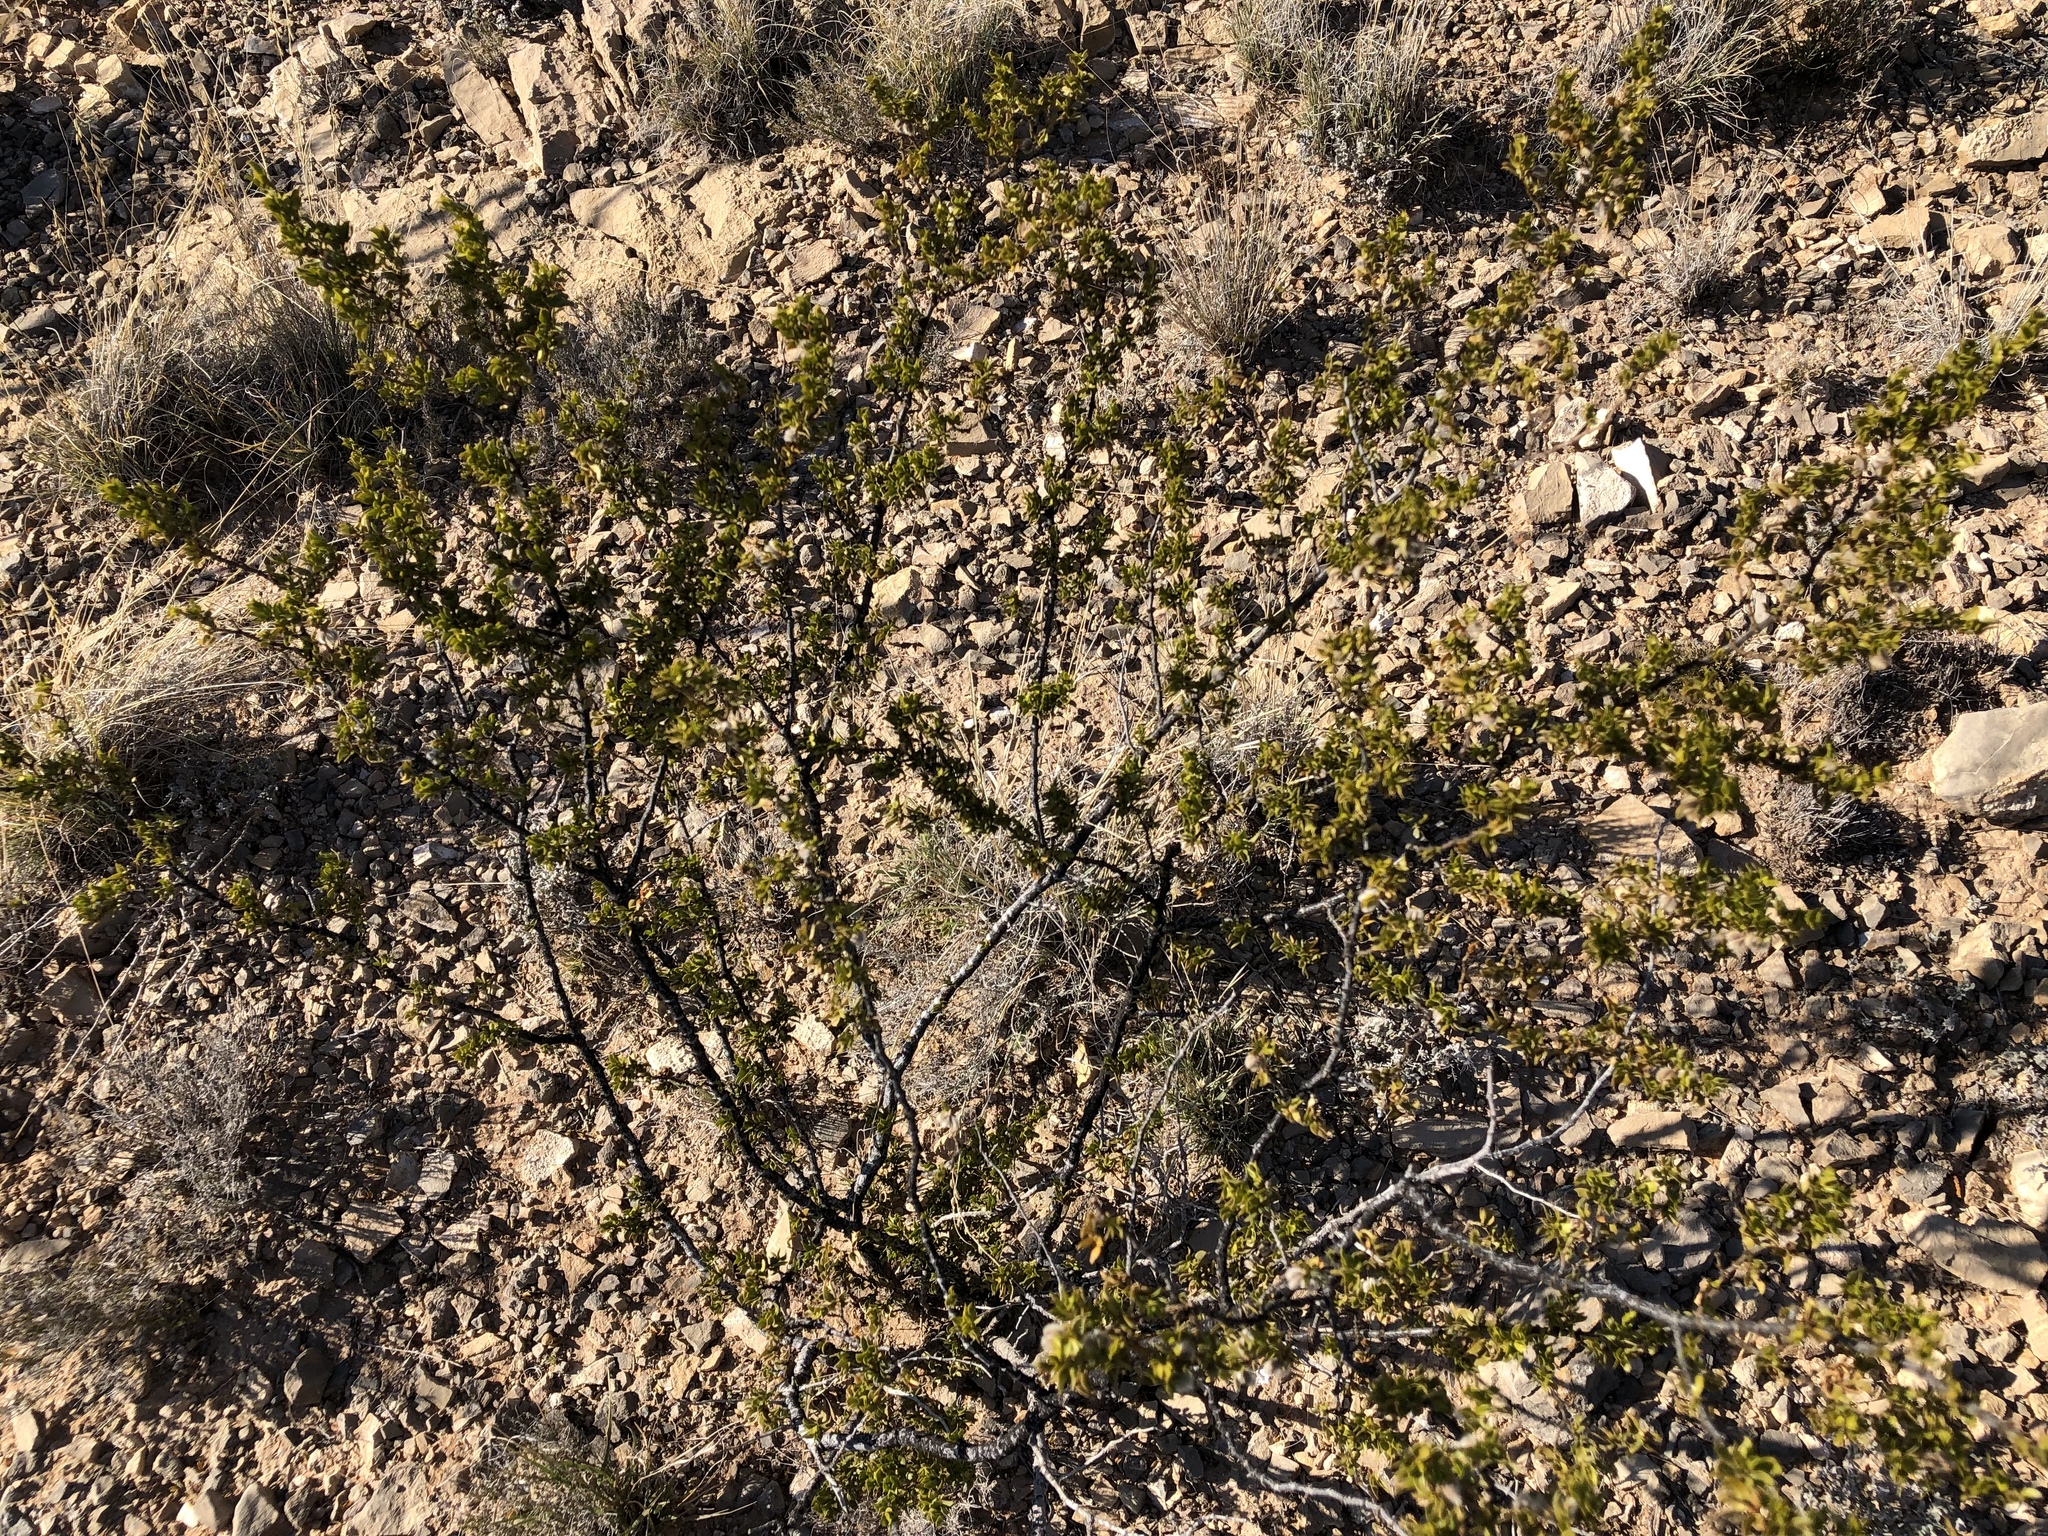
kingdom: Plantae
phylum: Tracheophyta
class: Magnoliopsida
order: Zygophyllales
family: Zygophyllaceae
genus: Larrea
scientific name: Larrea tridentata
